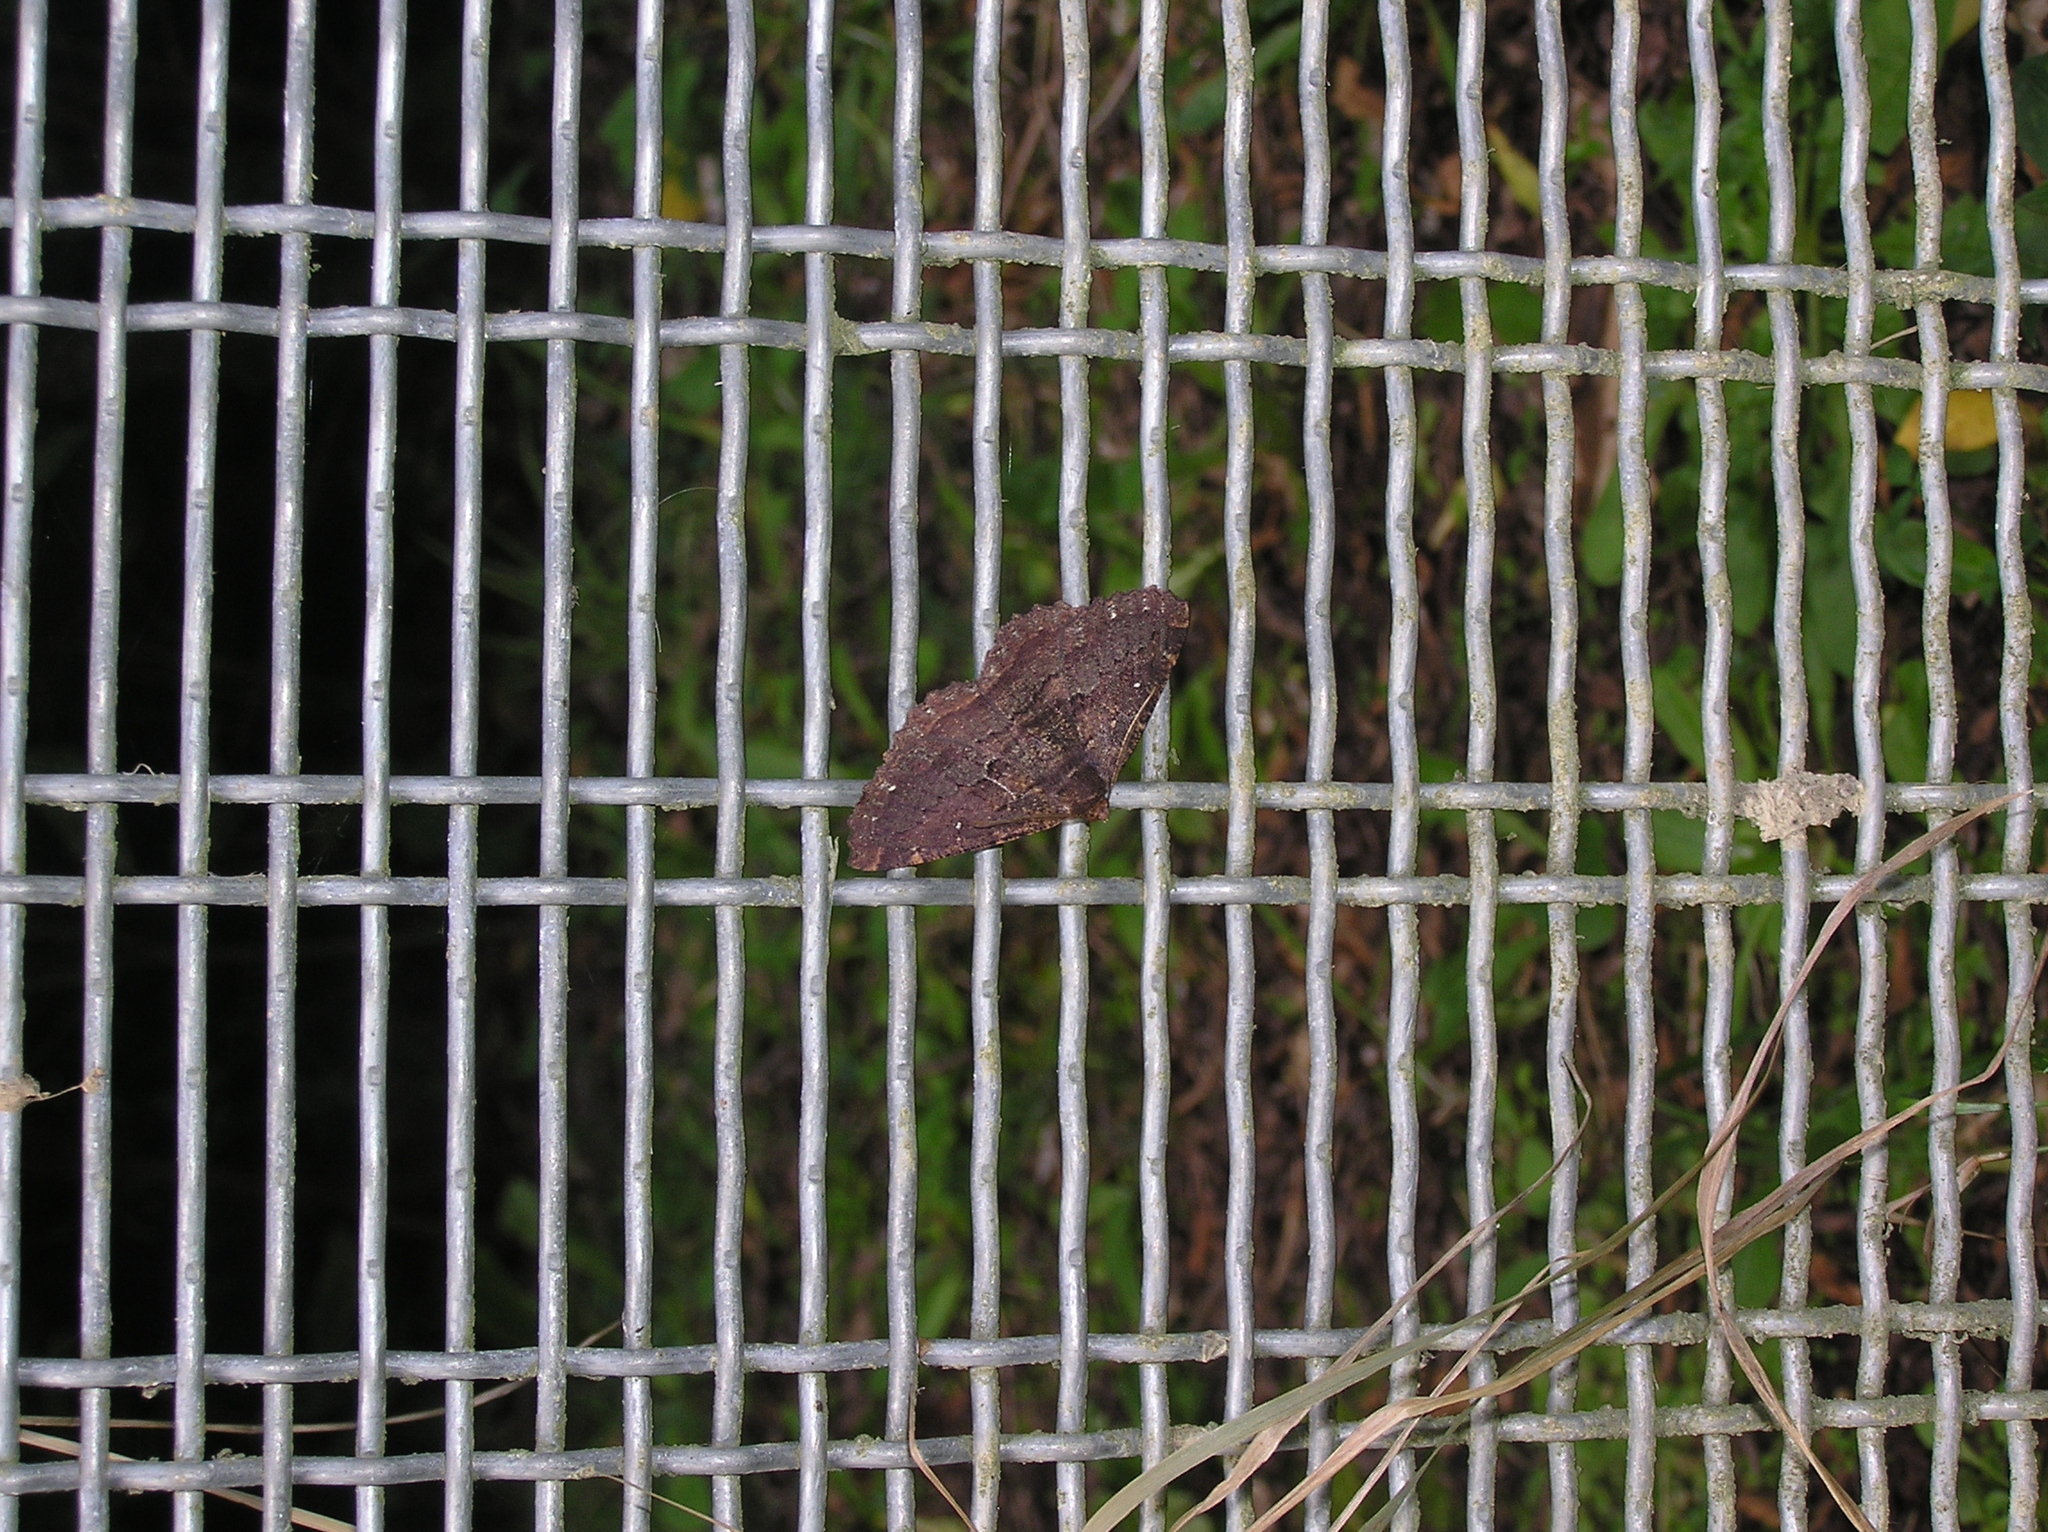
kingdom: Animalia
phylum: Arthropoda
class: Insecta
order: Lepidoptera
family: Geometridae
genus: Gellonia
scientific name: Gellonia dejectaria
